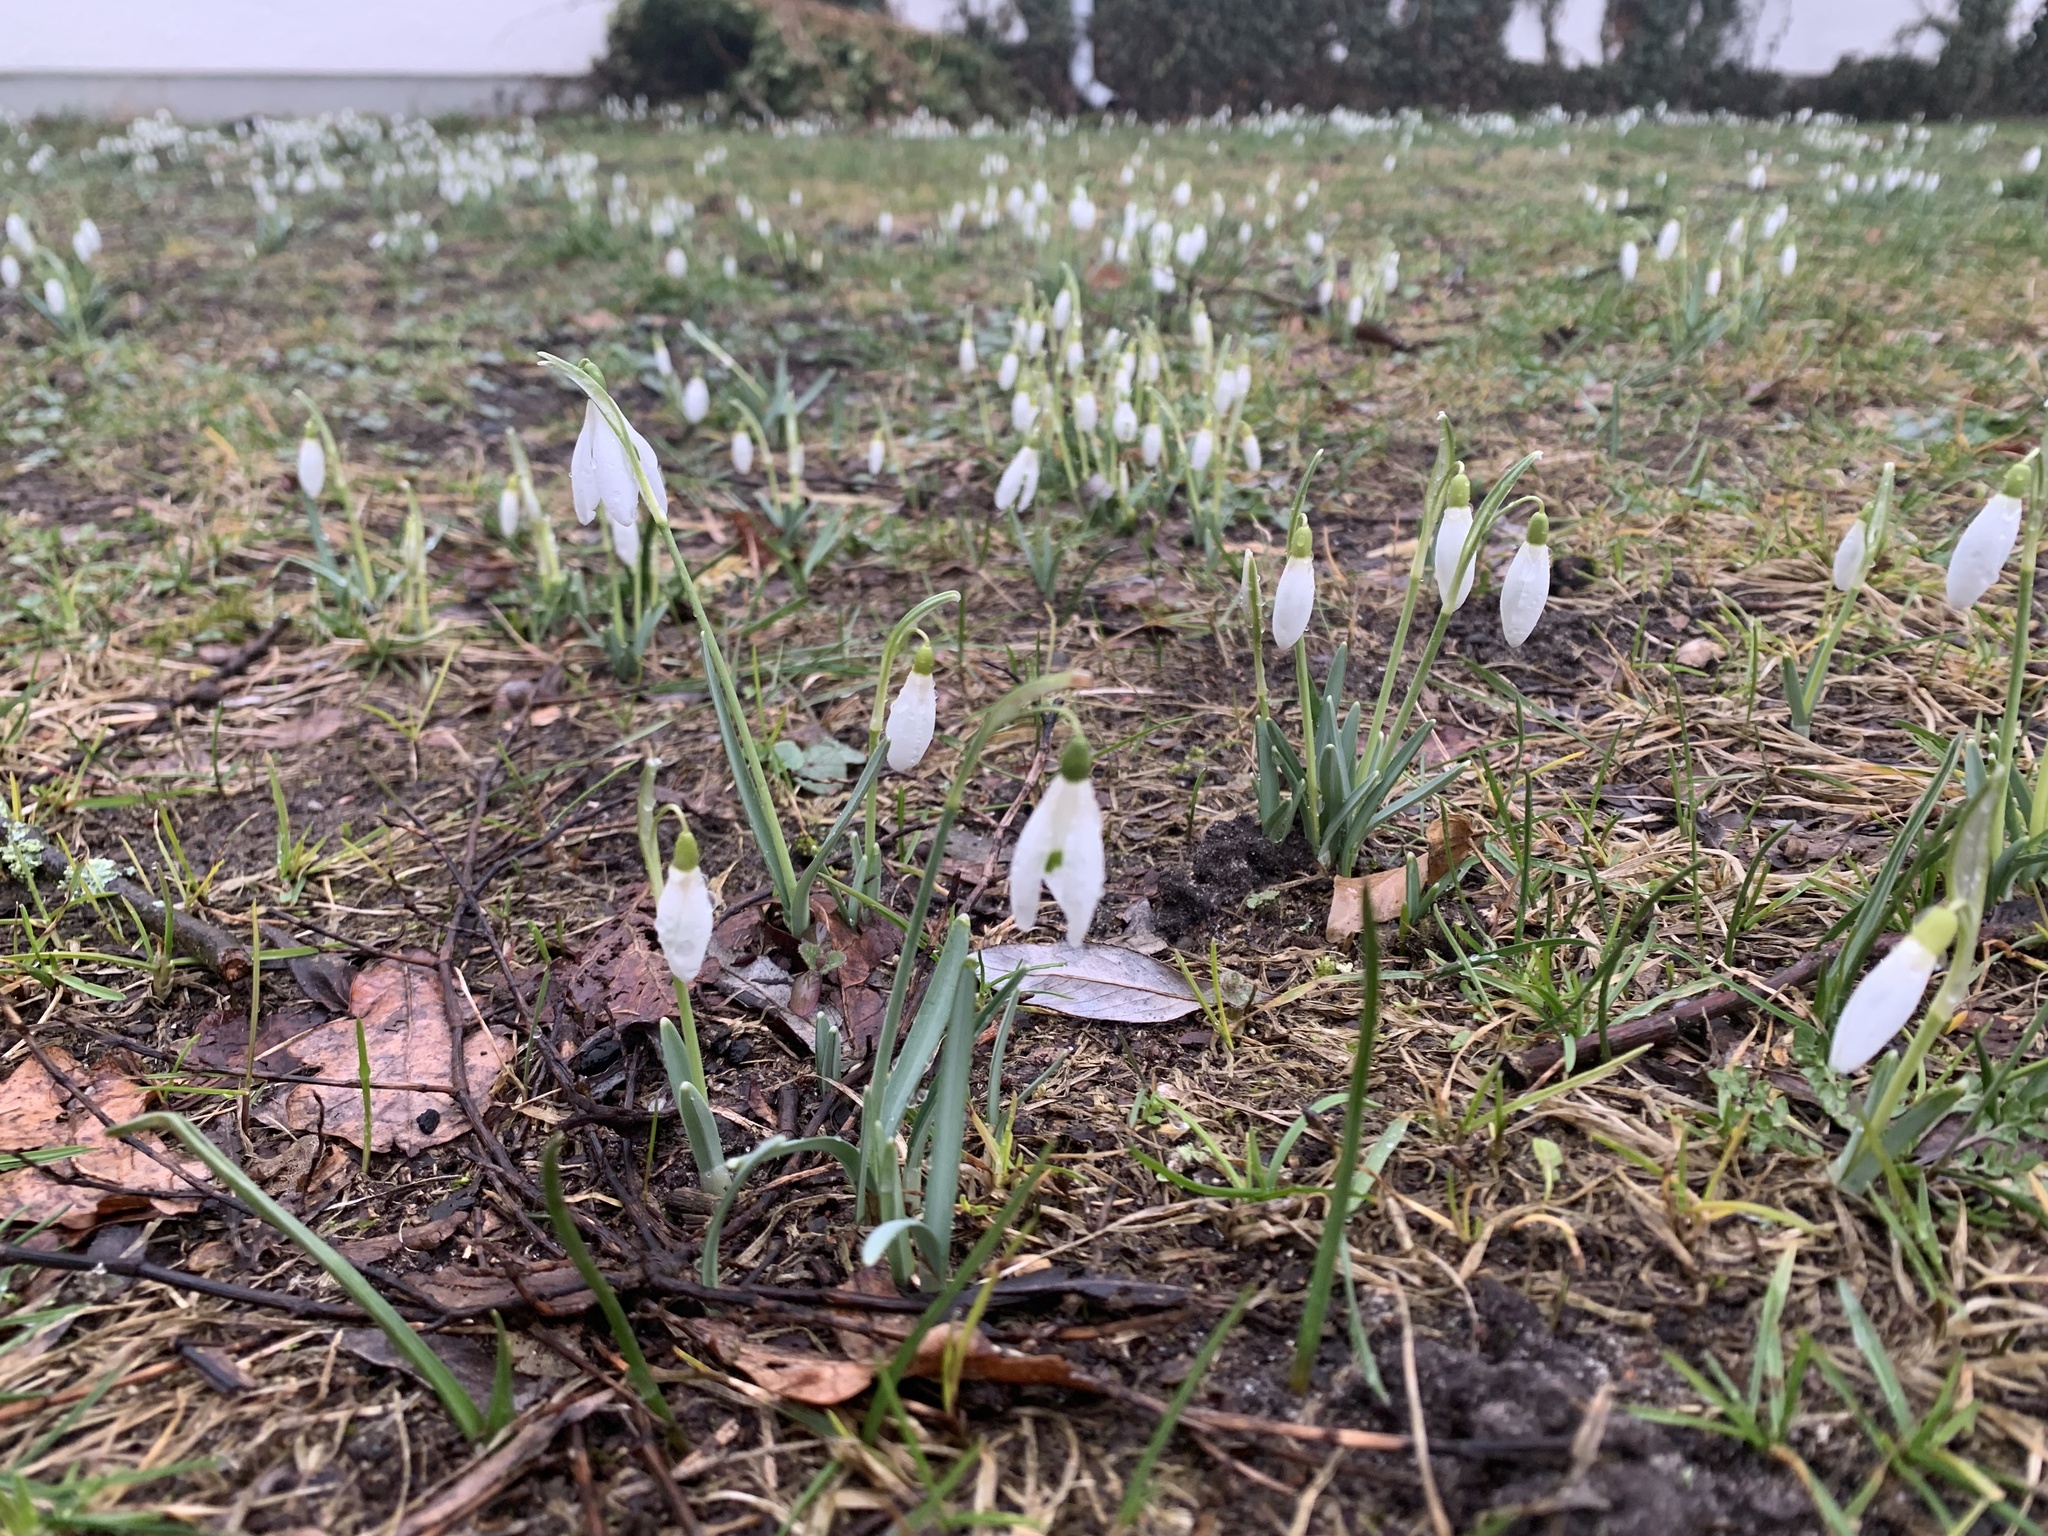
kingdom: Plantae
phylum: Tracheophyta
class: Liliopsida
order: Asparagales
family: Amaryllidaceae
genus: Galanthus
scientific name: Galanthus nivalis
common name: Snowdrop
